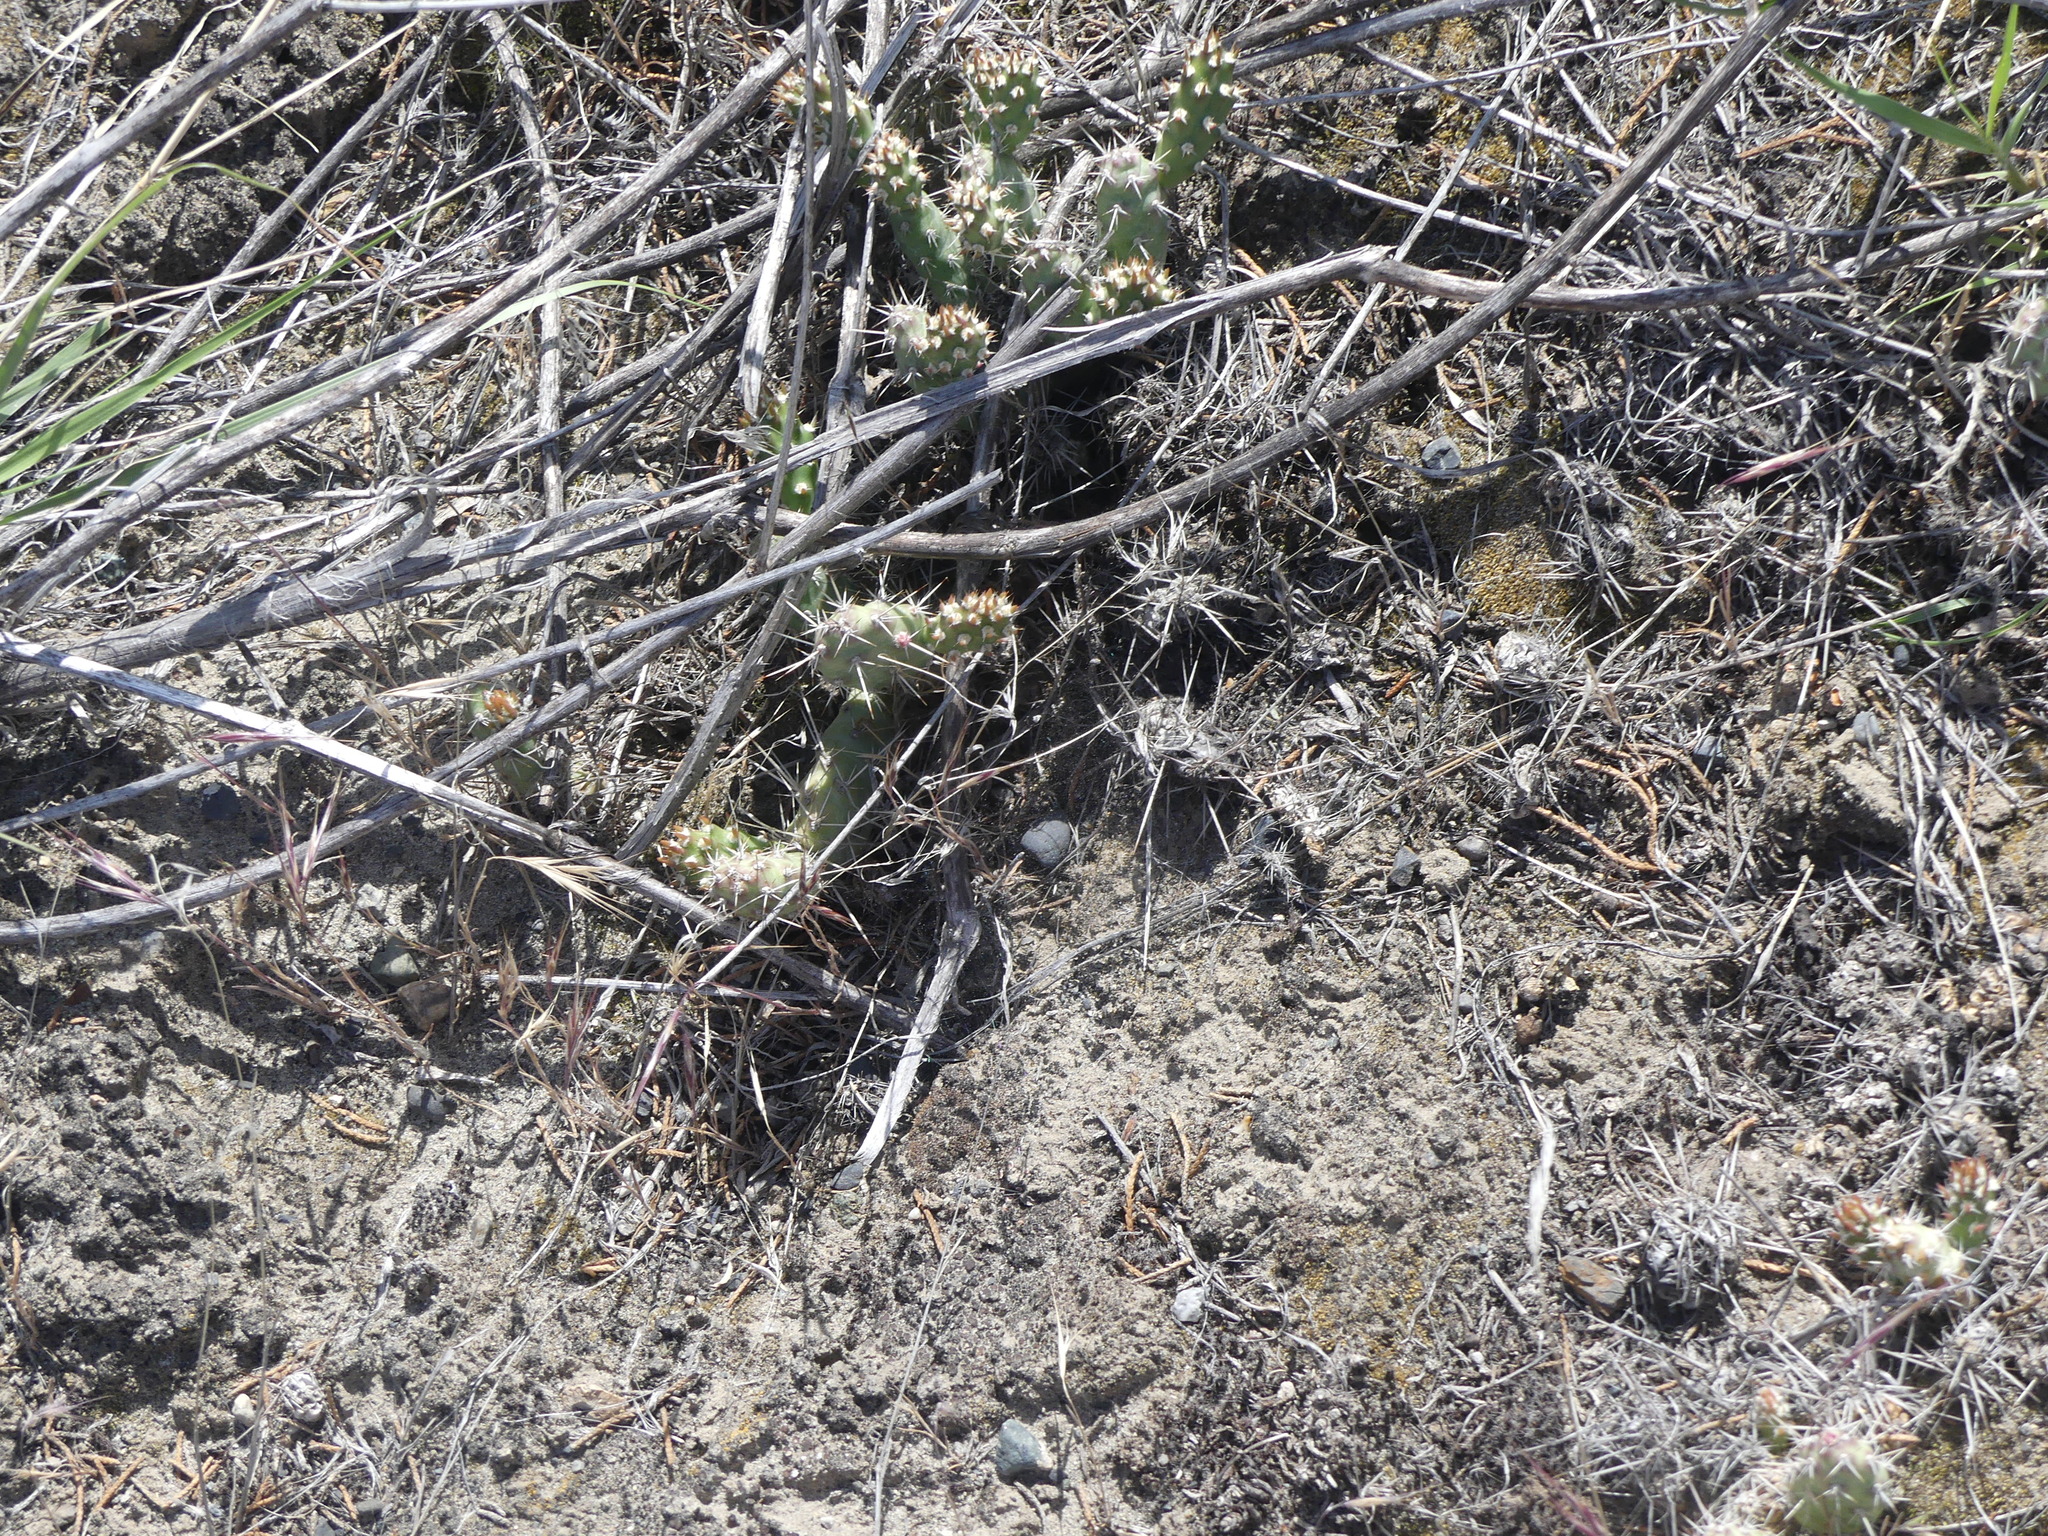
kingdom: Plantae
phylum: Tracheophyta
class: Magnoliopsida
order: Caryophyllales
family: Cactaceae
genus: Opuntia
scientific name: Opuntia fragilis
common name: Brittle cactus
